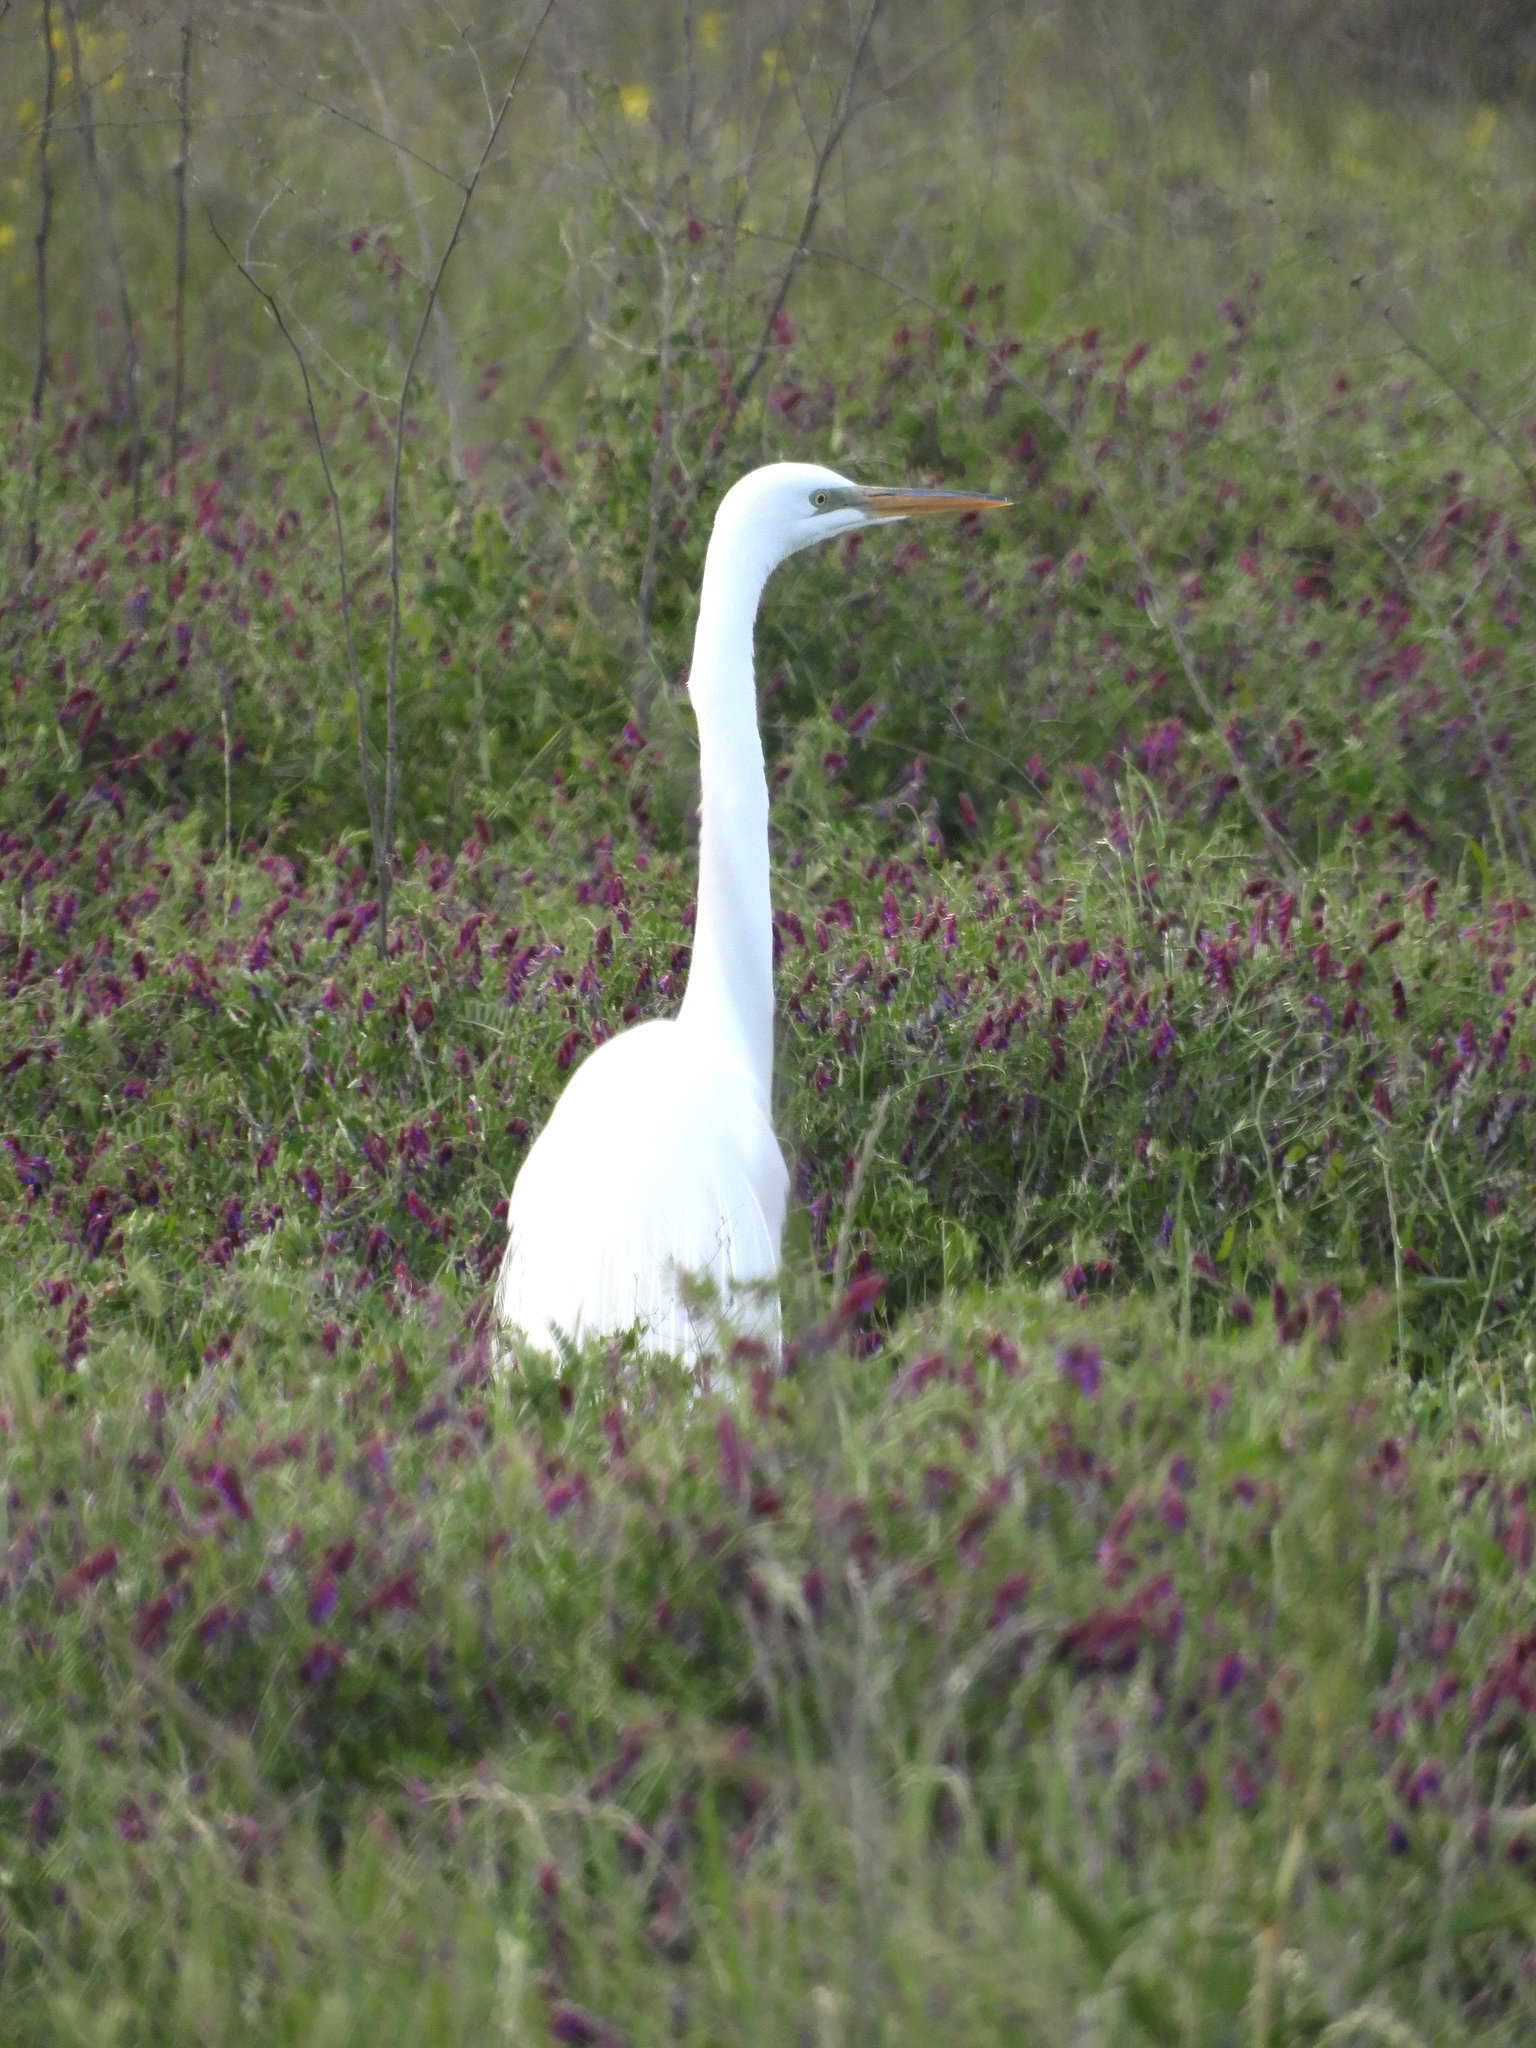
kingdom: Animalia
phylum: Chordata
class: Aves
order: Pelecaniformes
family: Ardeidae
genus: Ardea
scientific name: Ardea alba
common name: Great egret
